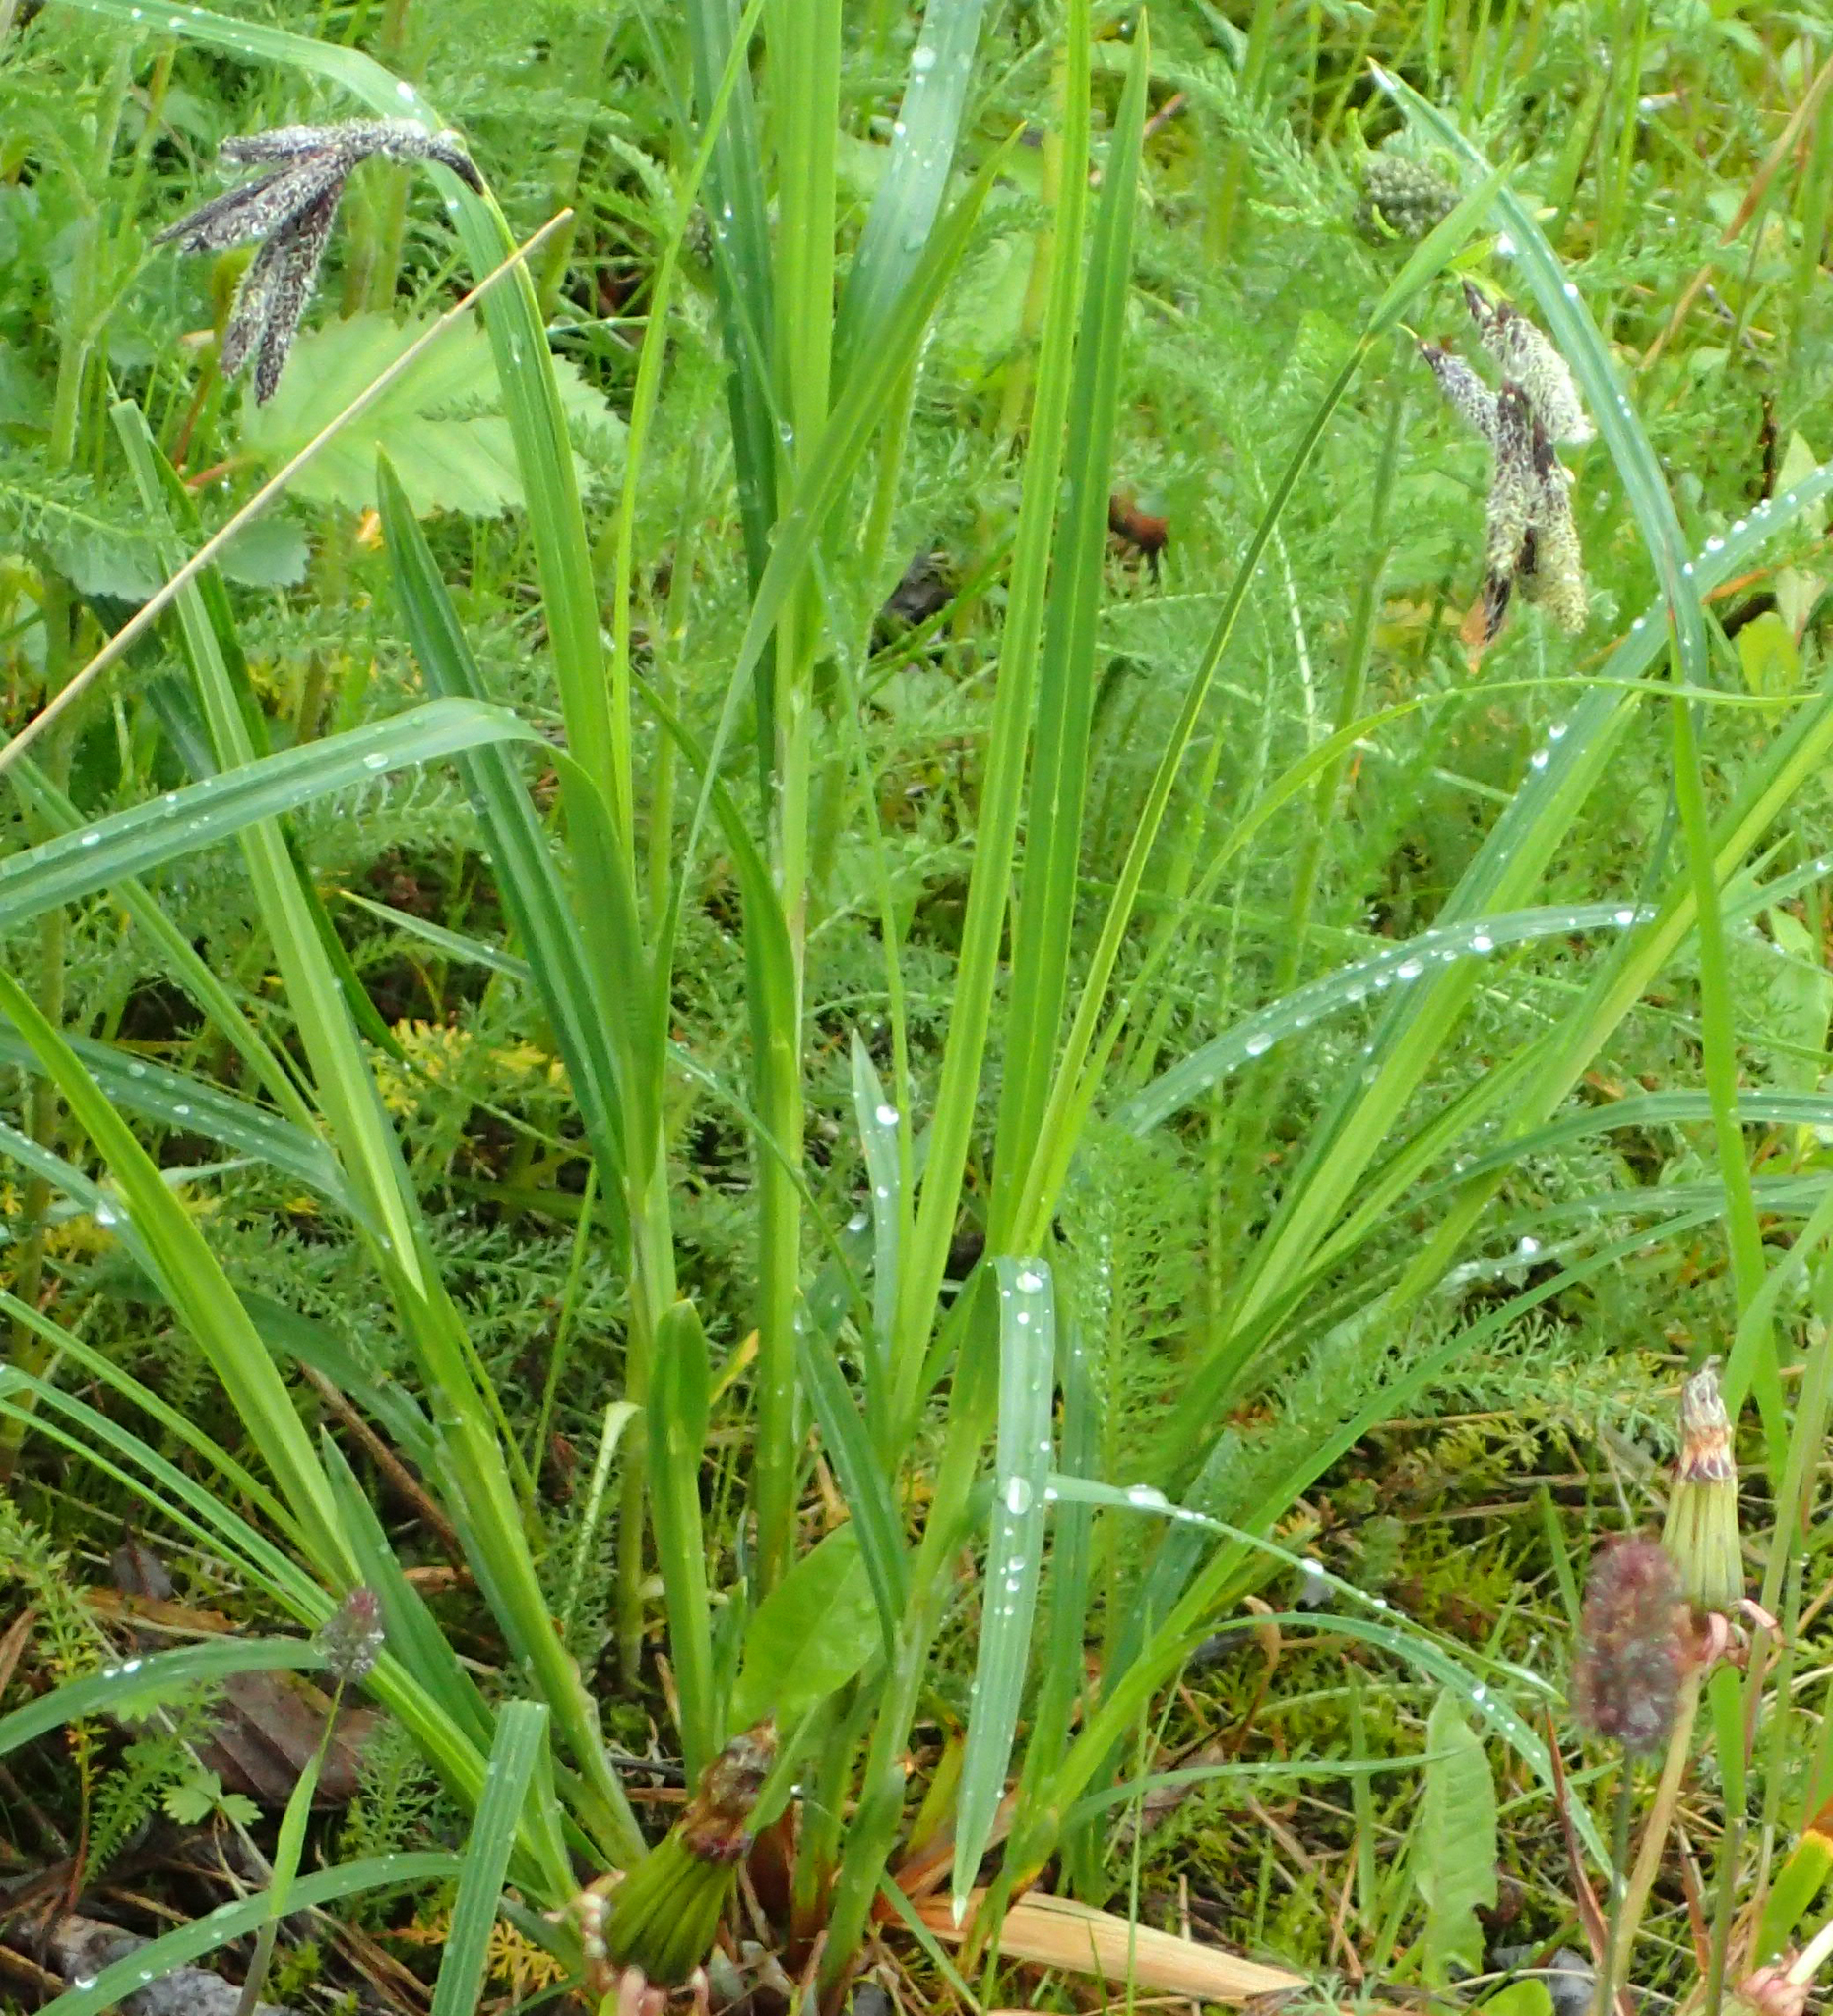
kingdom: Plantae
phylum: Tracheophyta
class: Liliopsida
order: Poales
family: Cyperaceae
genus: Carex
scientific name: Carex mertensii
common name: Mertens' sedge
